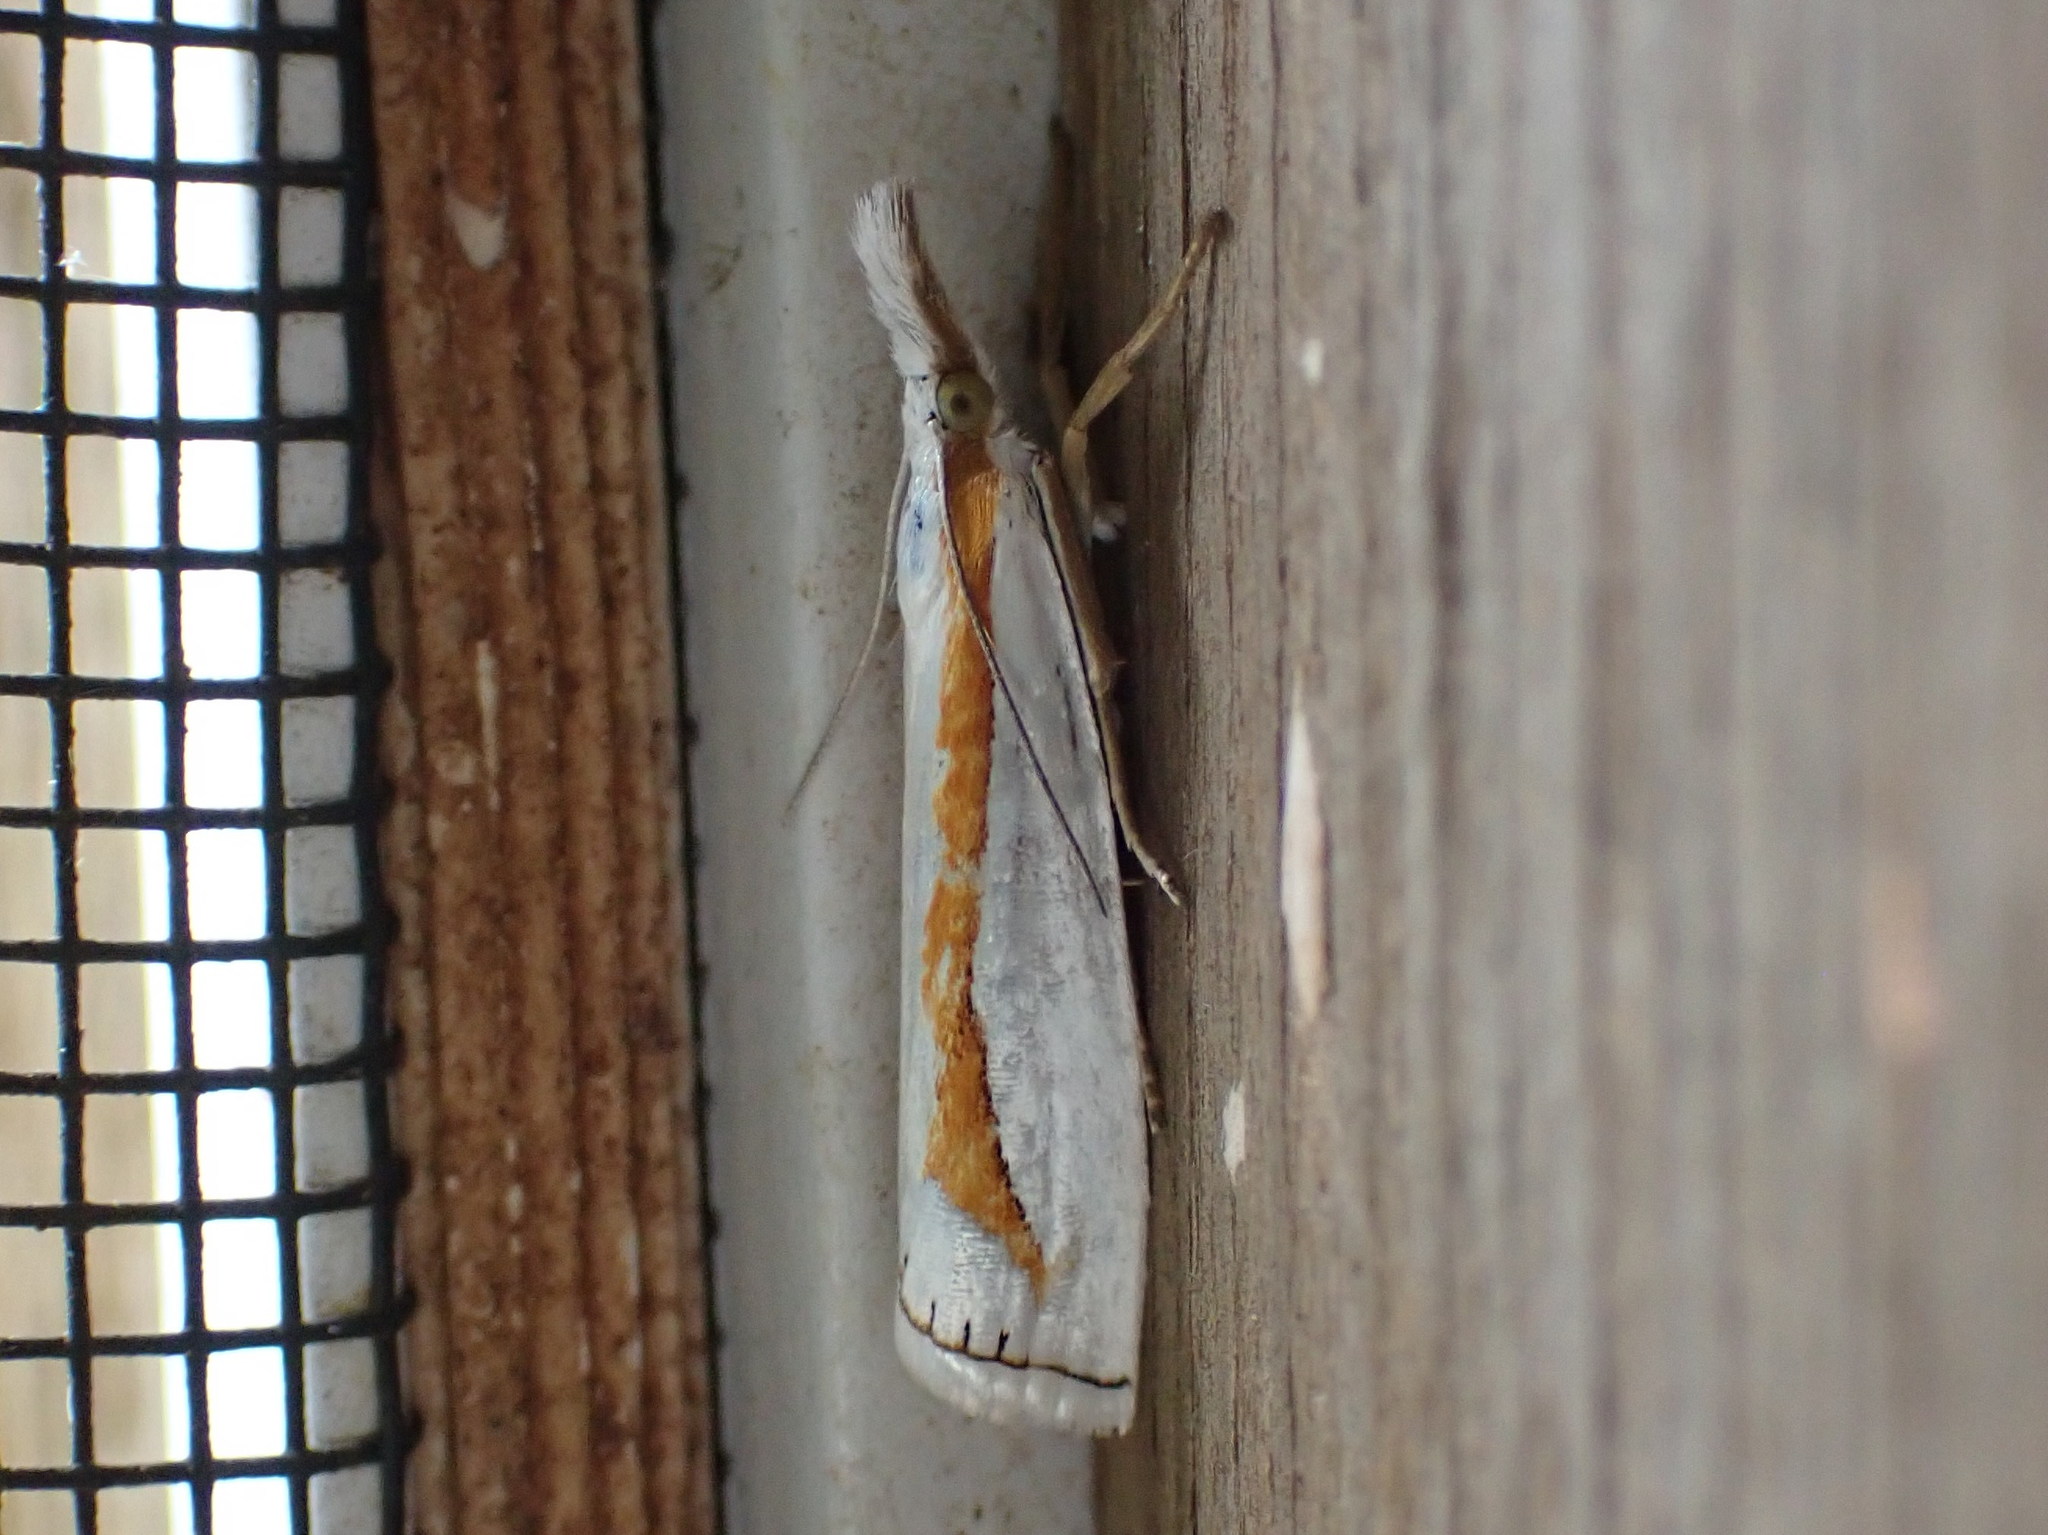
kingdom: Animalia
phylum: Arthropoda
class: Insecta
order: Lepidoptera
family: Crambidae
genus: Crambus
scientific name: Crambus girardellus
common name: Girard's grass-veneer
